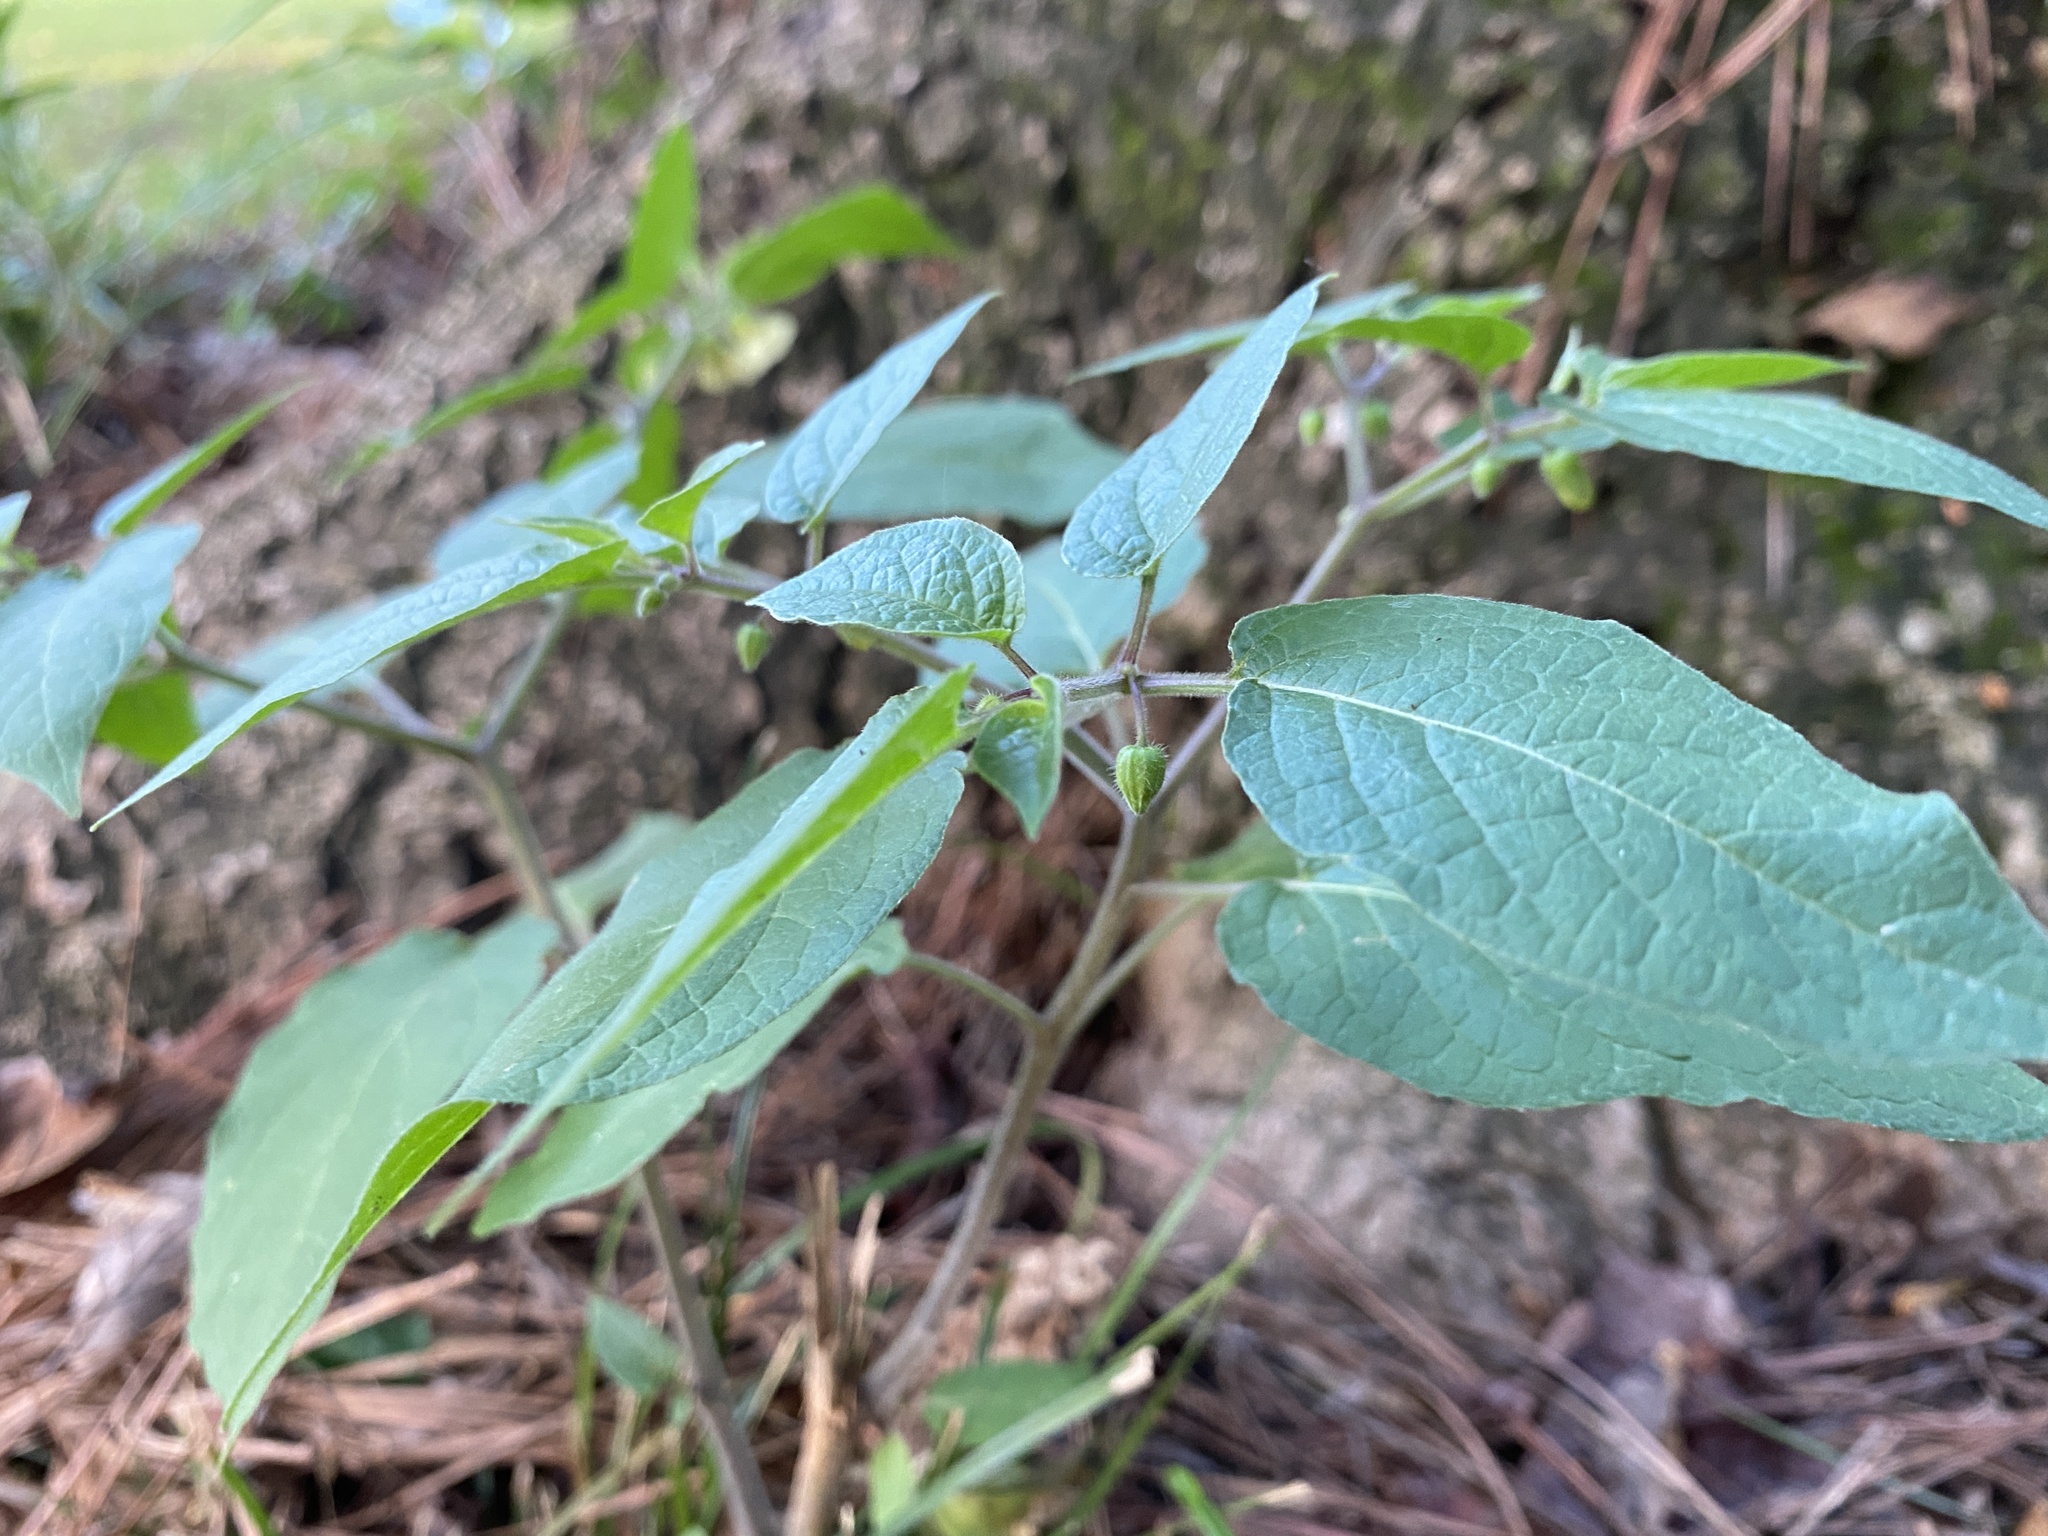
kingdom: Plantae
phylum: Tracheophyta
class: Magnoliopsida
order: Solanales
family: Solanaceae
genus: Calliphysalis
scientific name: Calliphysalis carpenteri
